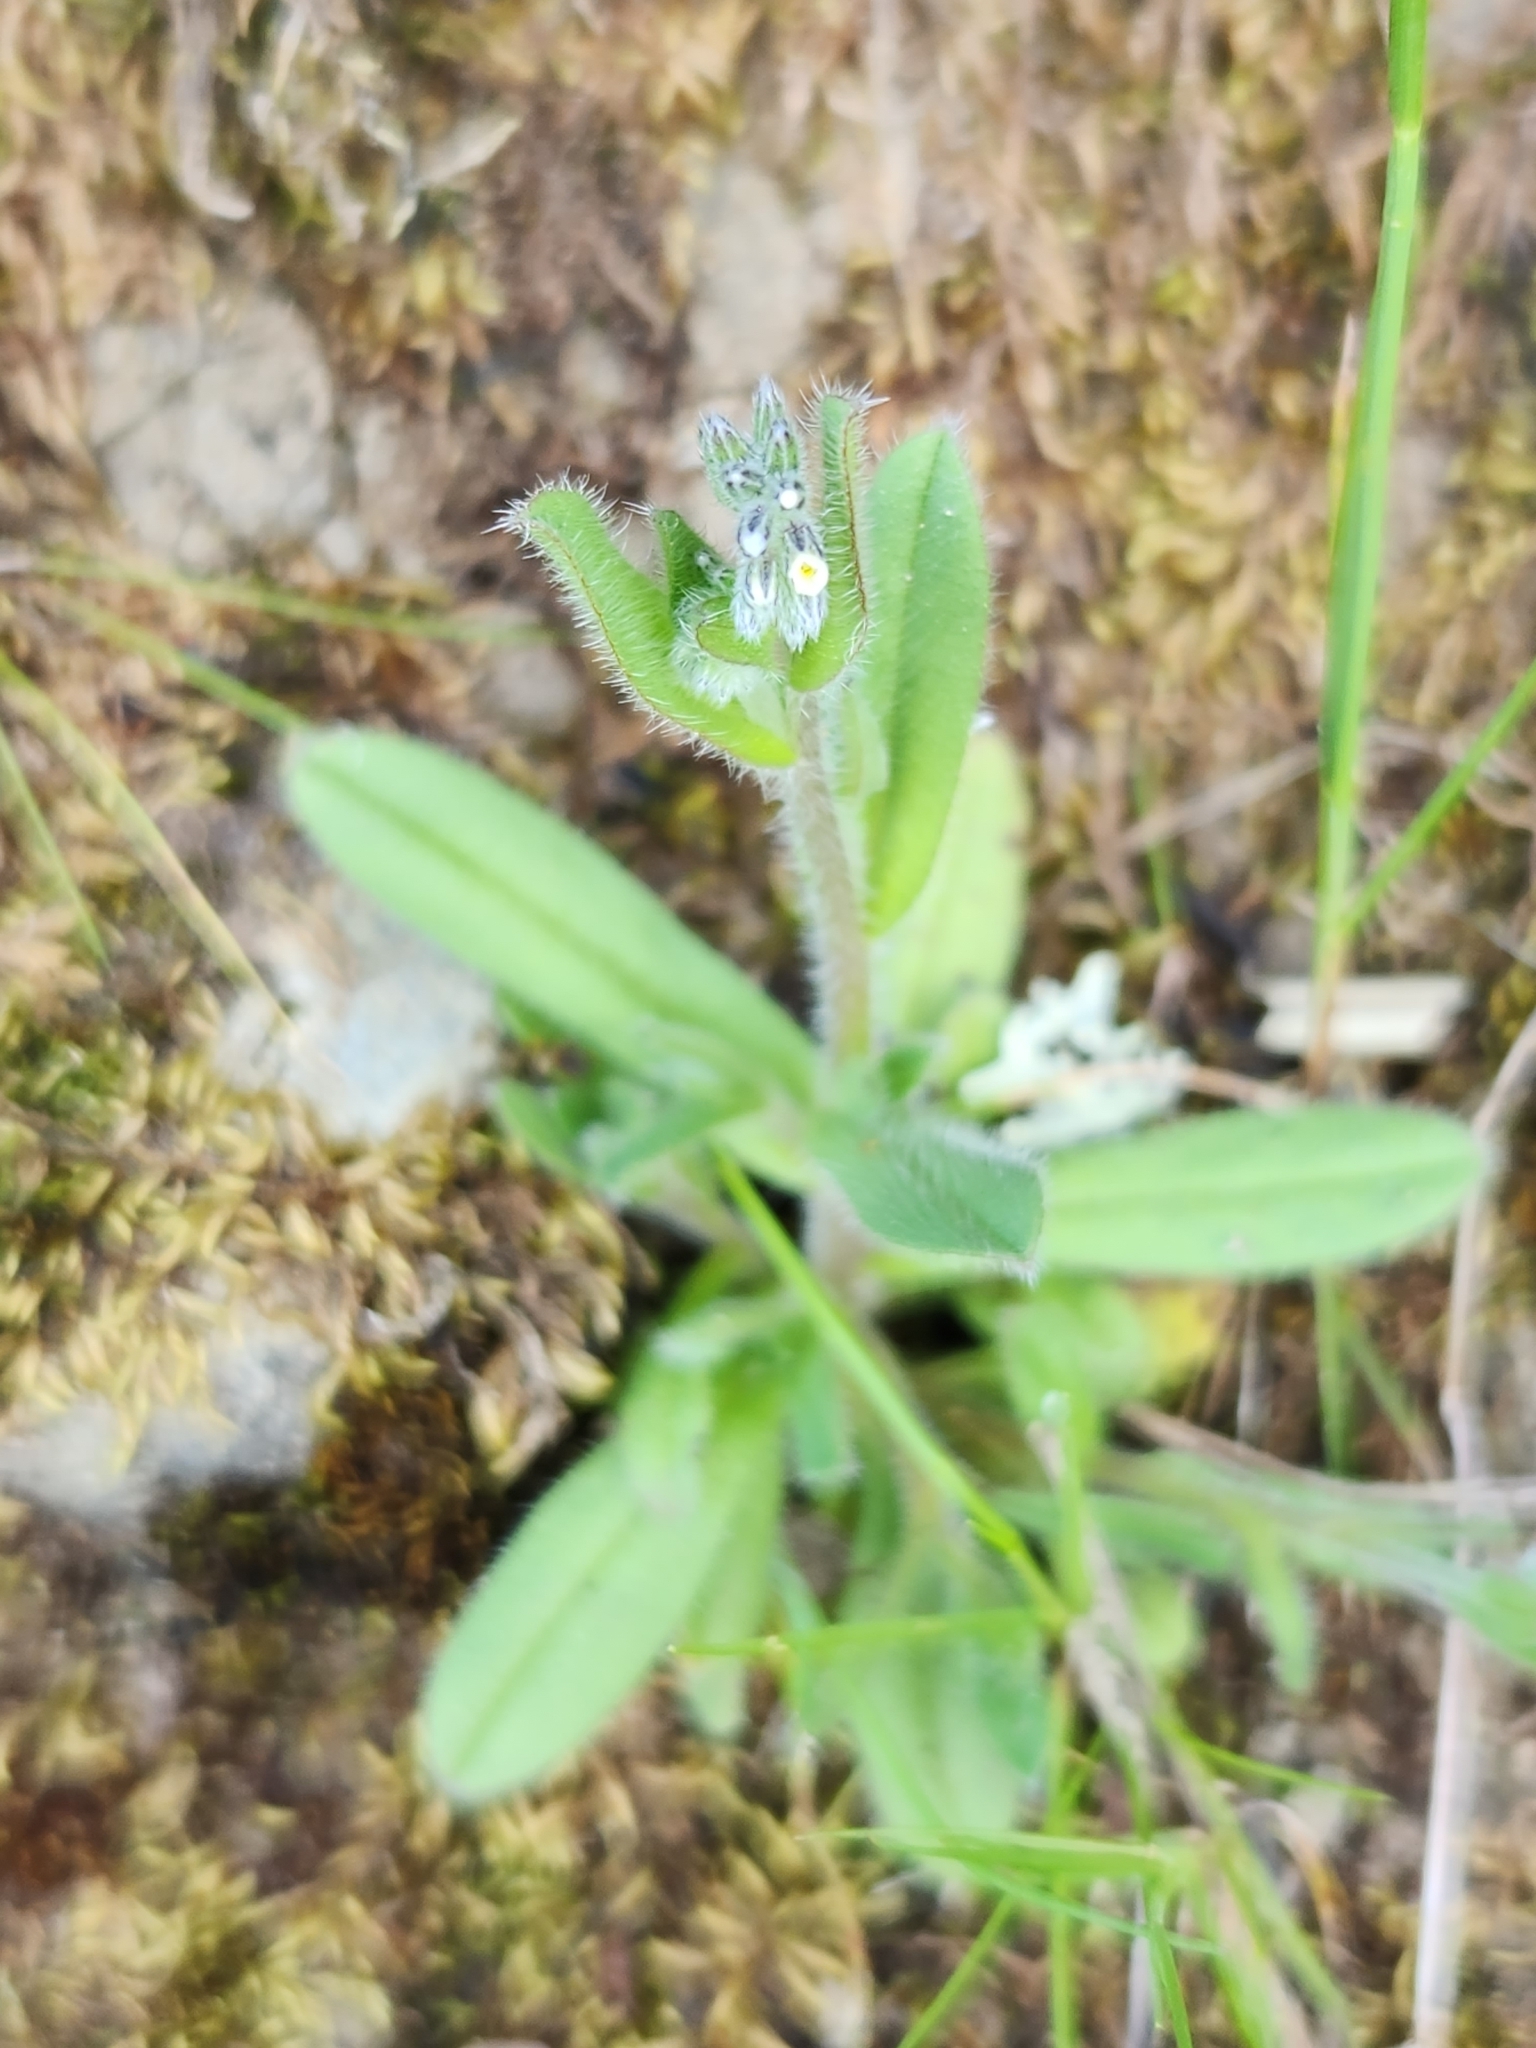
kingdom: Plantae
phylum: Tracheophyta
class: Magnoliopsida
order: Boraginales
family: Boraginaceae
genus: Myosotis
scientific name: Myosotis discolor
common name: Changing forget-me-not
